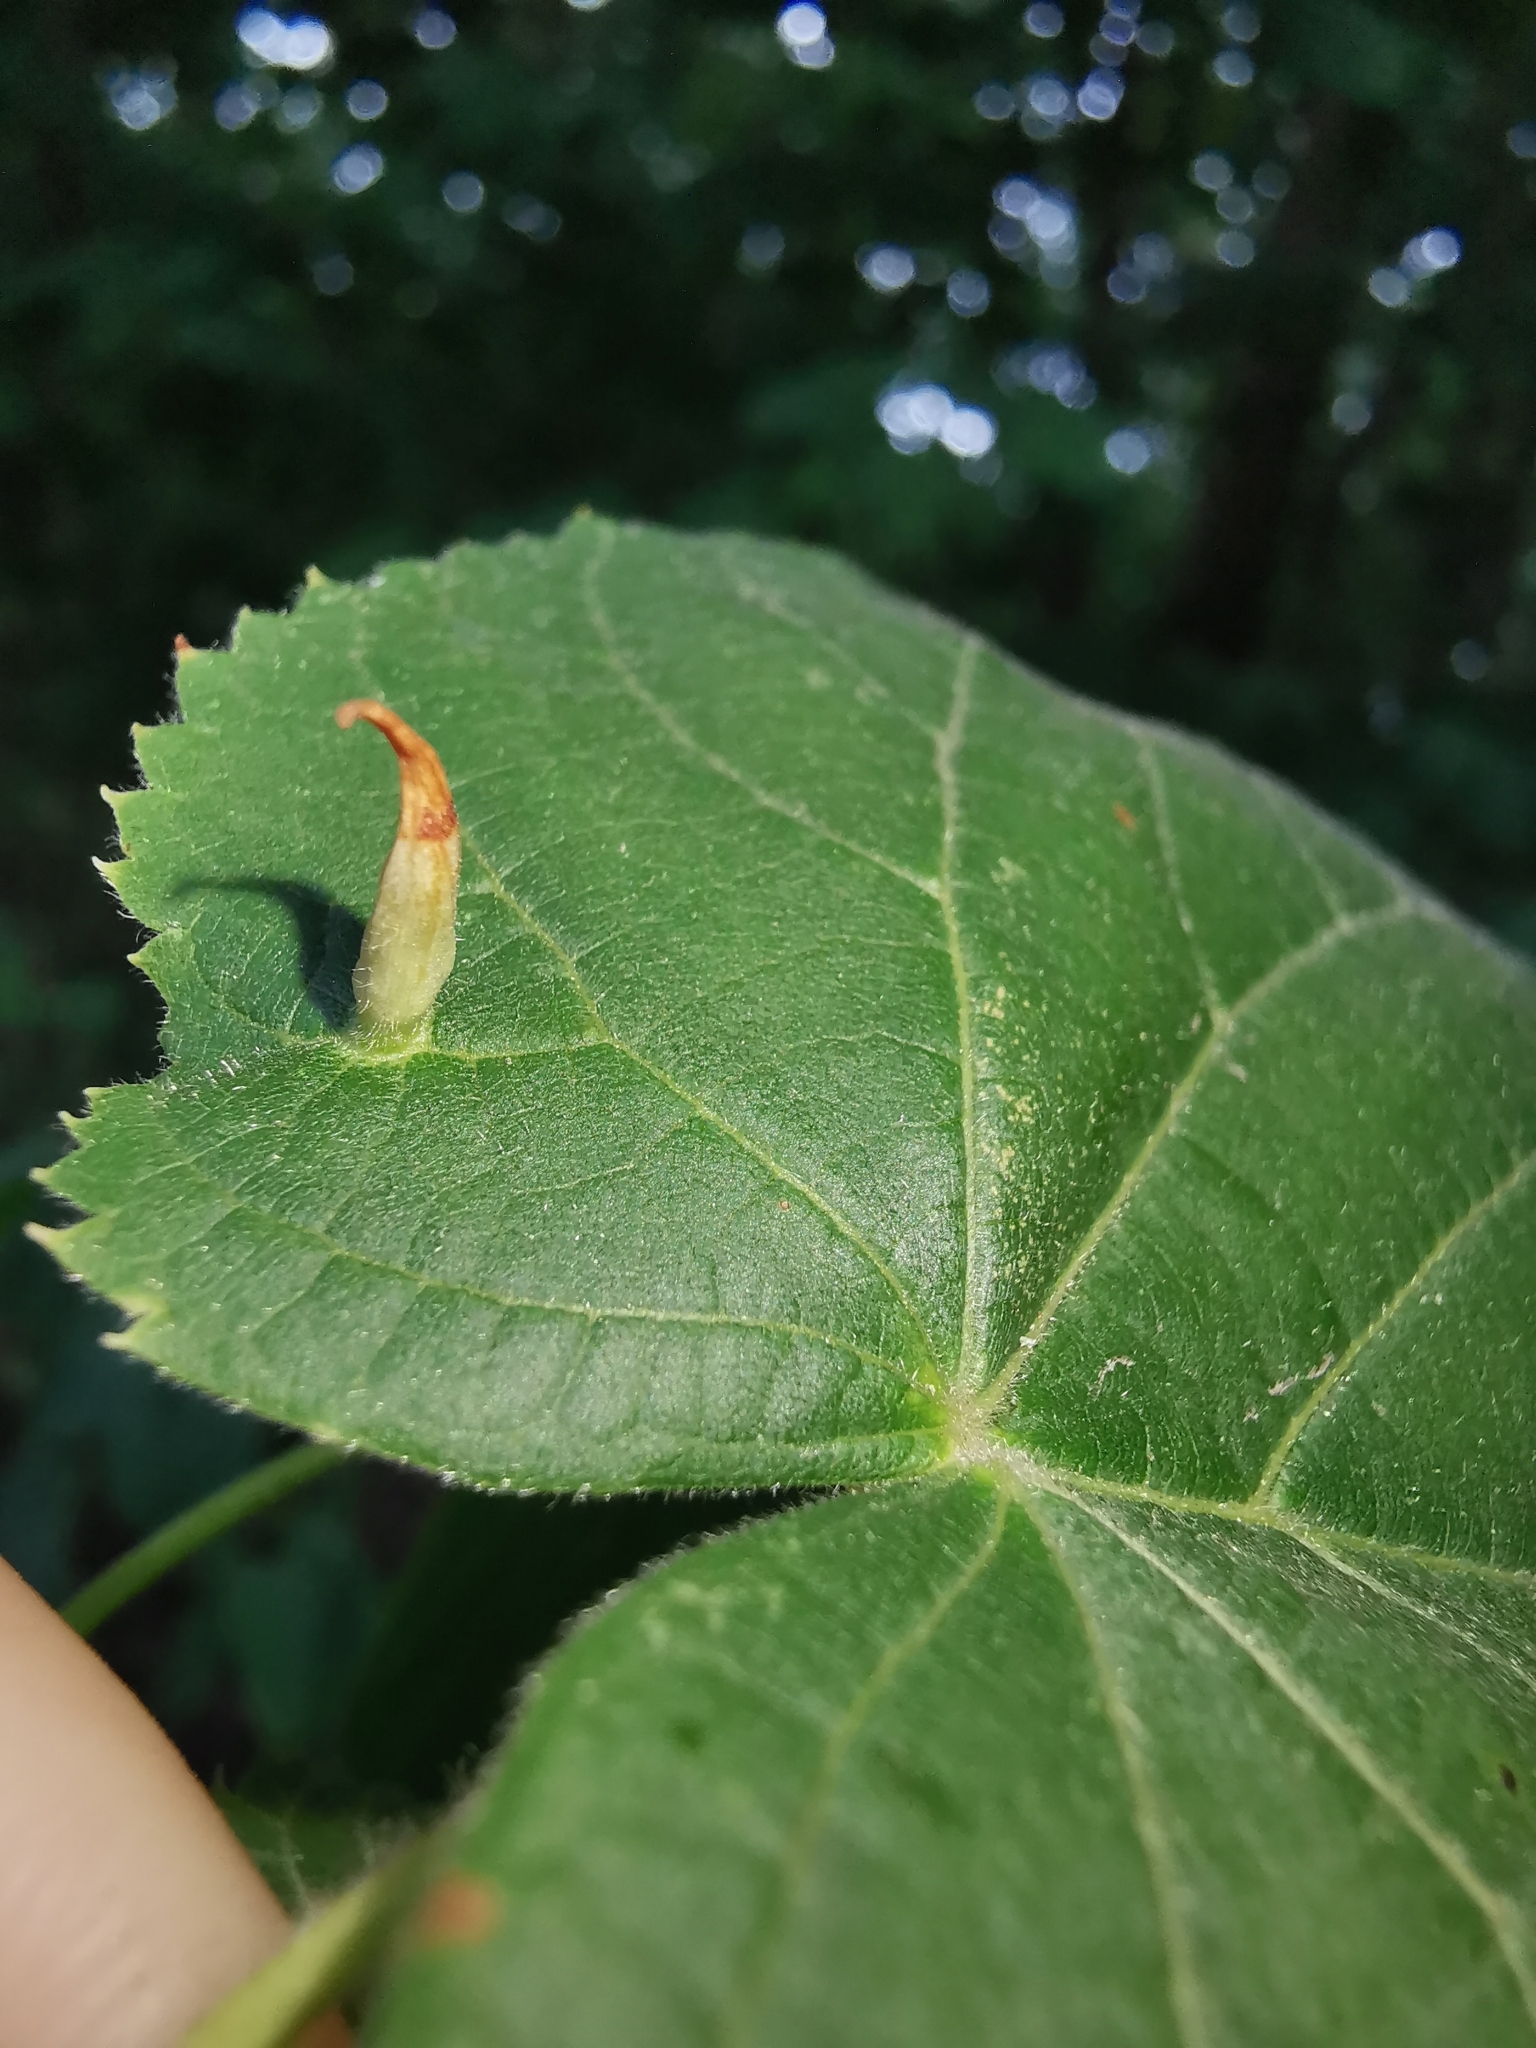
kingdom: Animalia
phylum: Arthropoda
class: Arachnida
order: Trombidiformes
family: Eriophyidae
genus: Eriophyes
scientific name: Eriophyes tiliae
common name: Red nail gall mite
